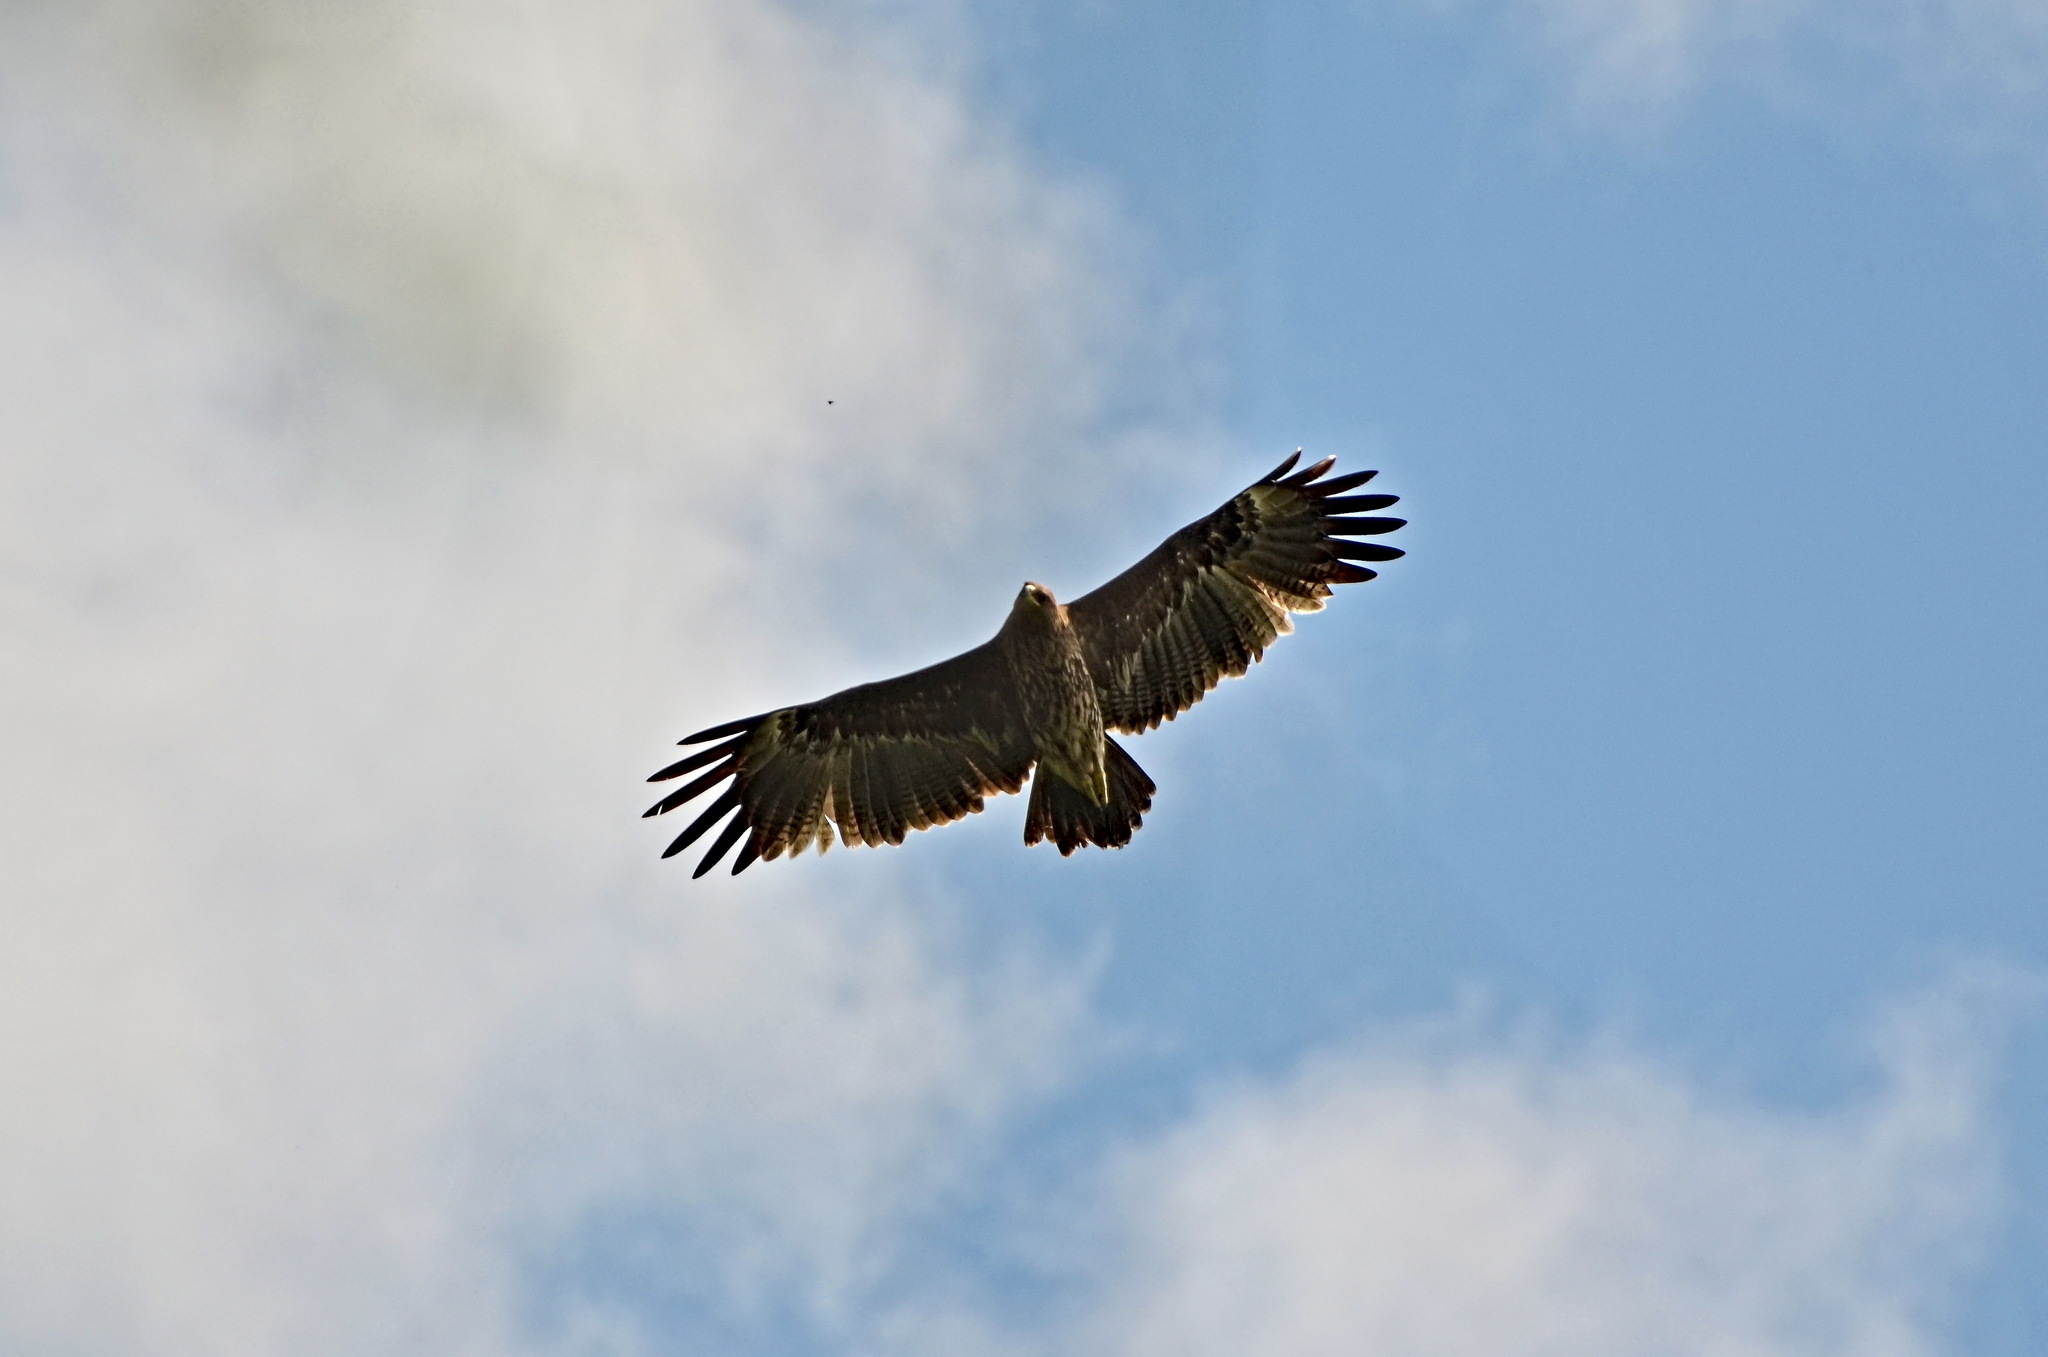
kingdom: Animalia
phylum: Chordata
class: Aves
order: Accipitriformes
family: Accipitridae
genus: Aquila
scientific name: Aquila pomarina
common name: Lesser spotted eagle
